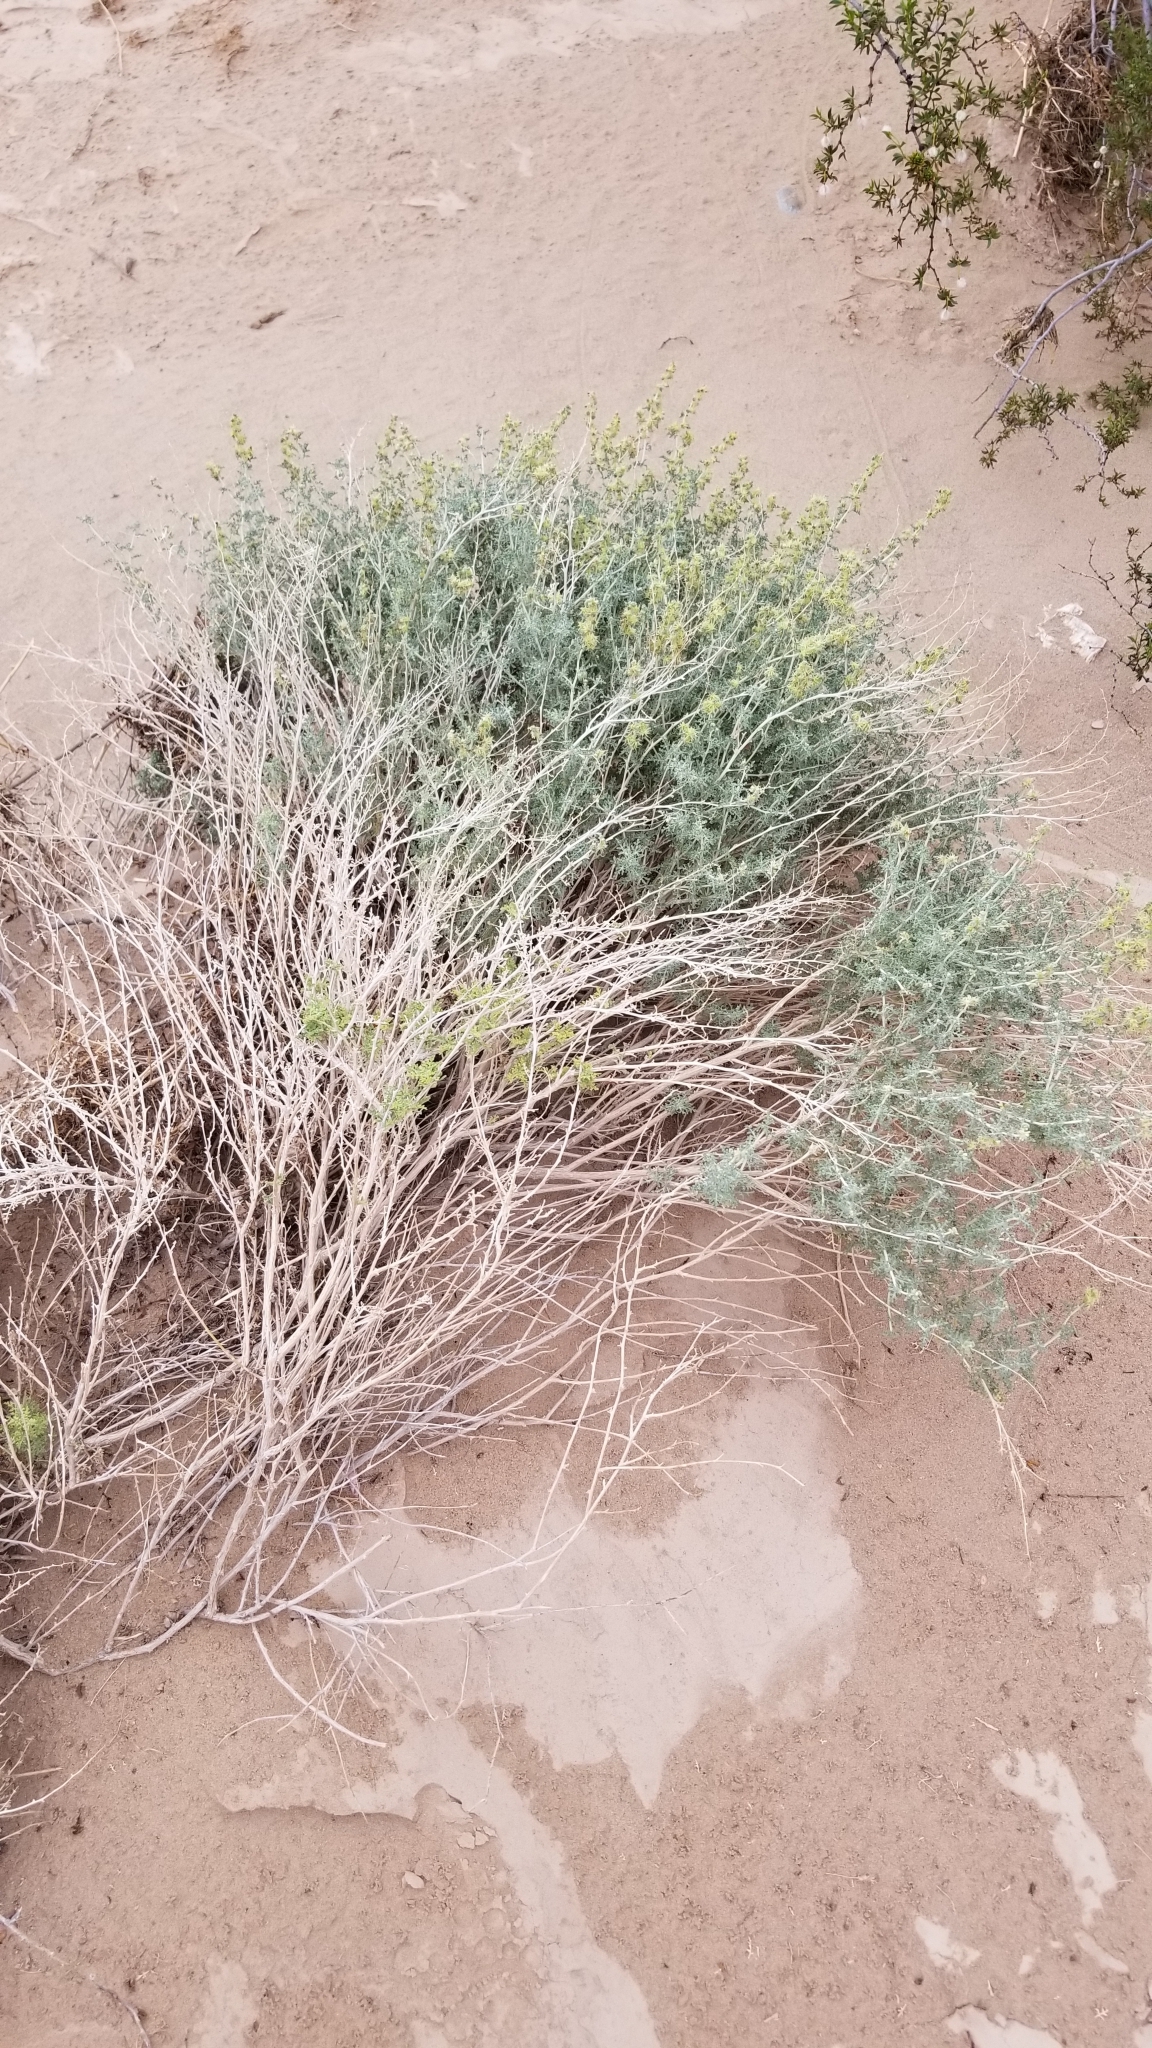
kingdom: Plantae
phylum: Tracheophyta
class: Magnoliopsida
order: Asterales
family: Asteraceae
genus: Ambrosia
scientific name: Ambrosia dumosa
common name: Bur-sage
